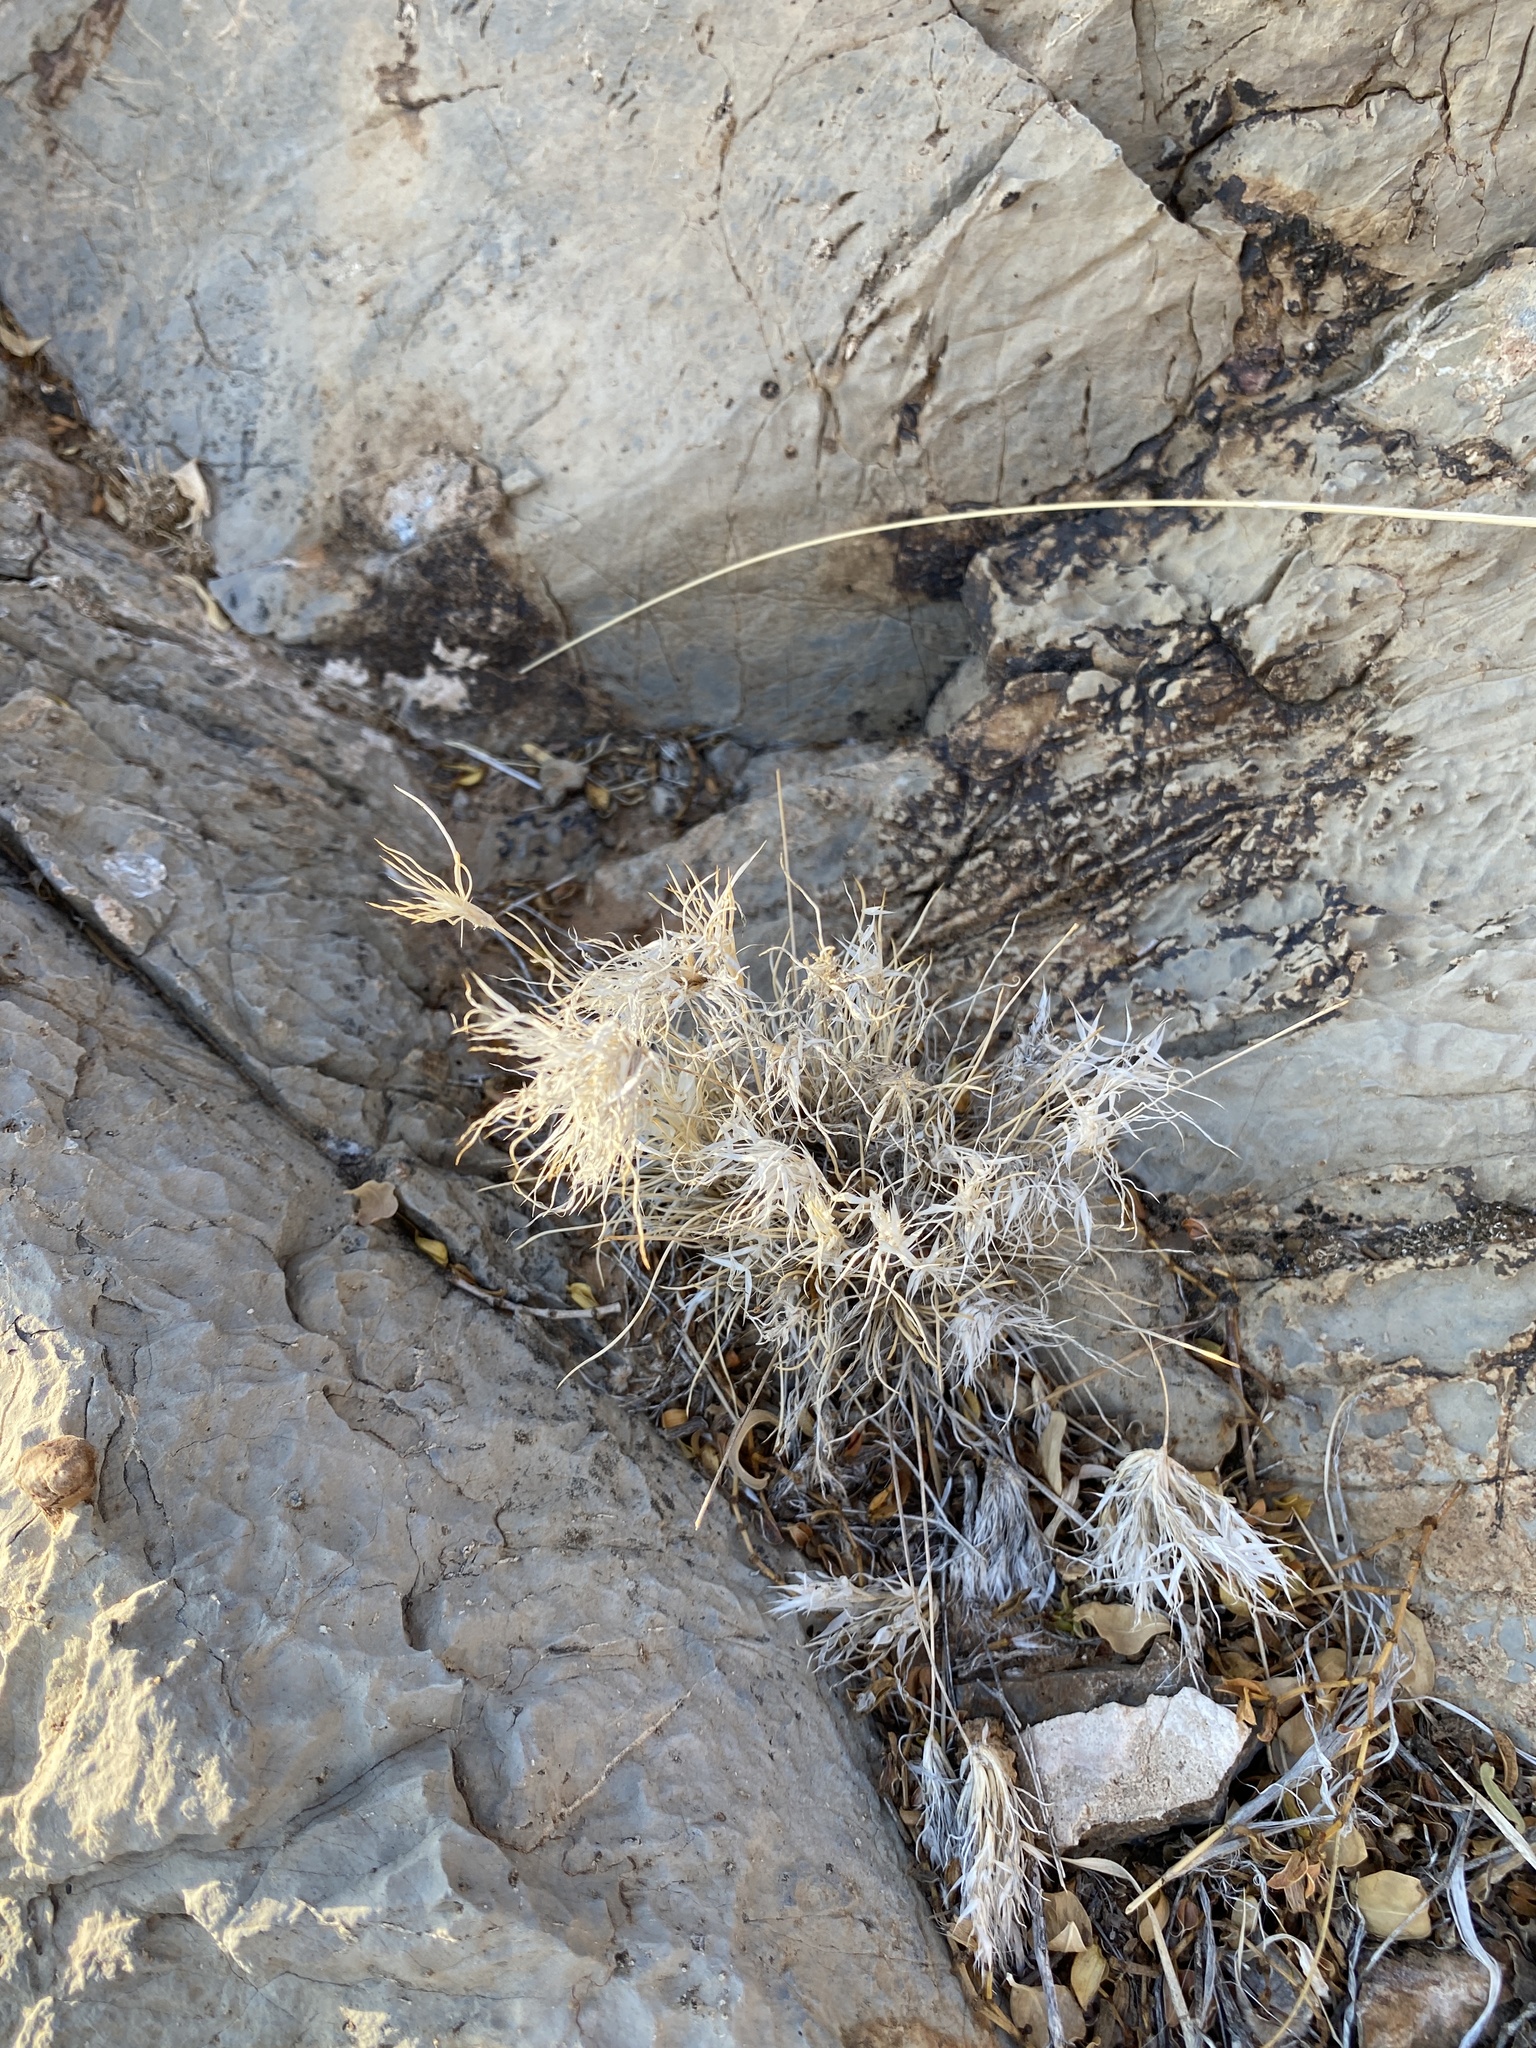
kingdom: Plantae
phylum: Tracheophyta
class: Liliopsida
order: Poales
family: Poaceae
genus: Dasyochloa
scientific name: Dasyochloa pulchella
